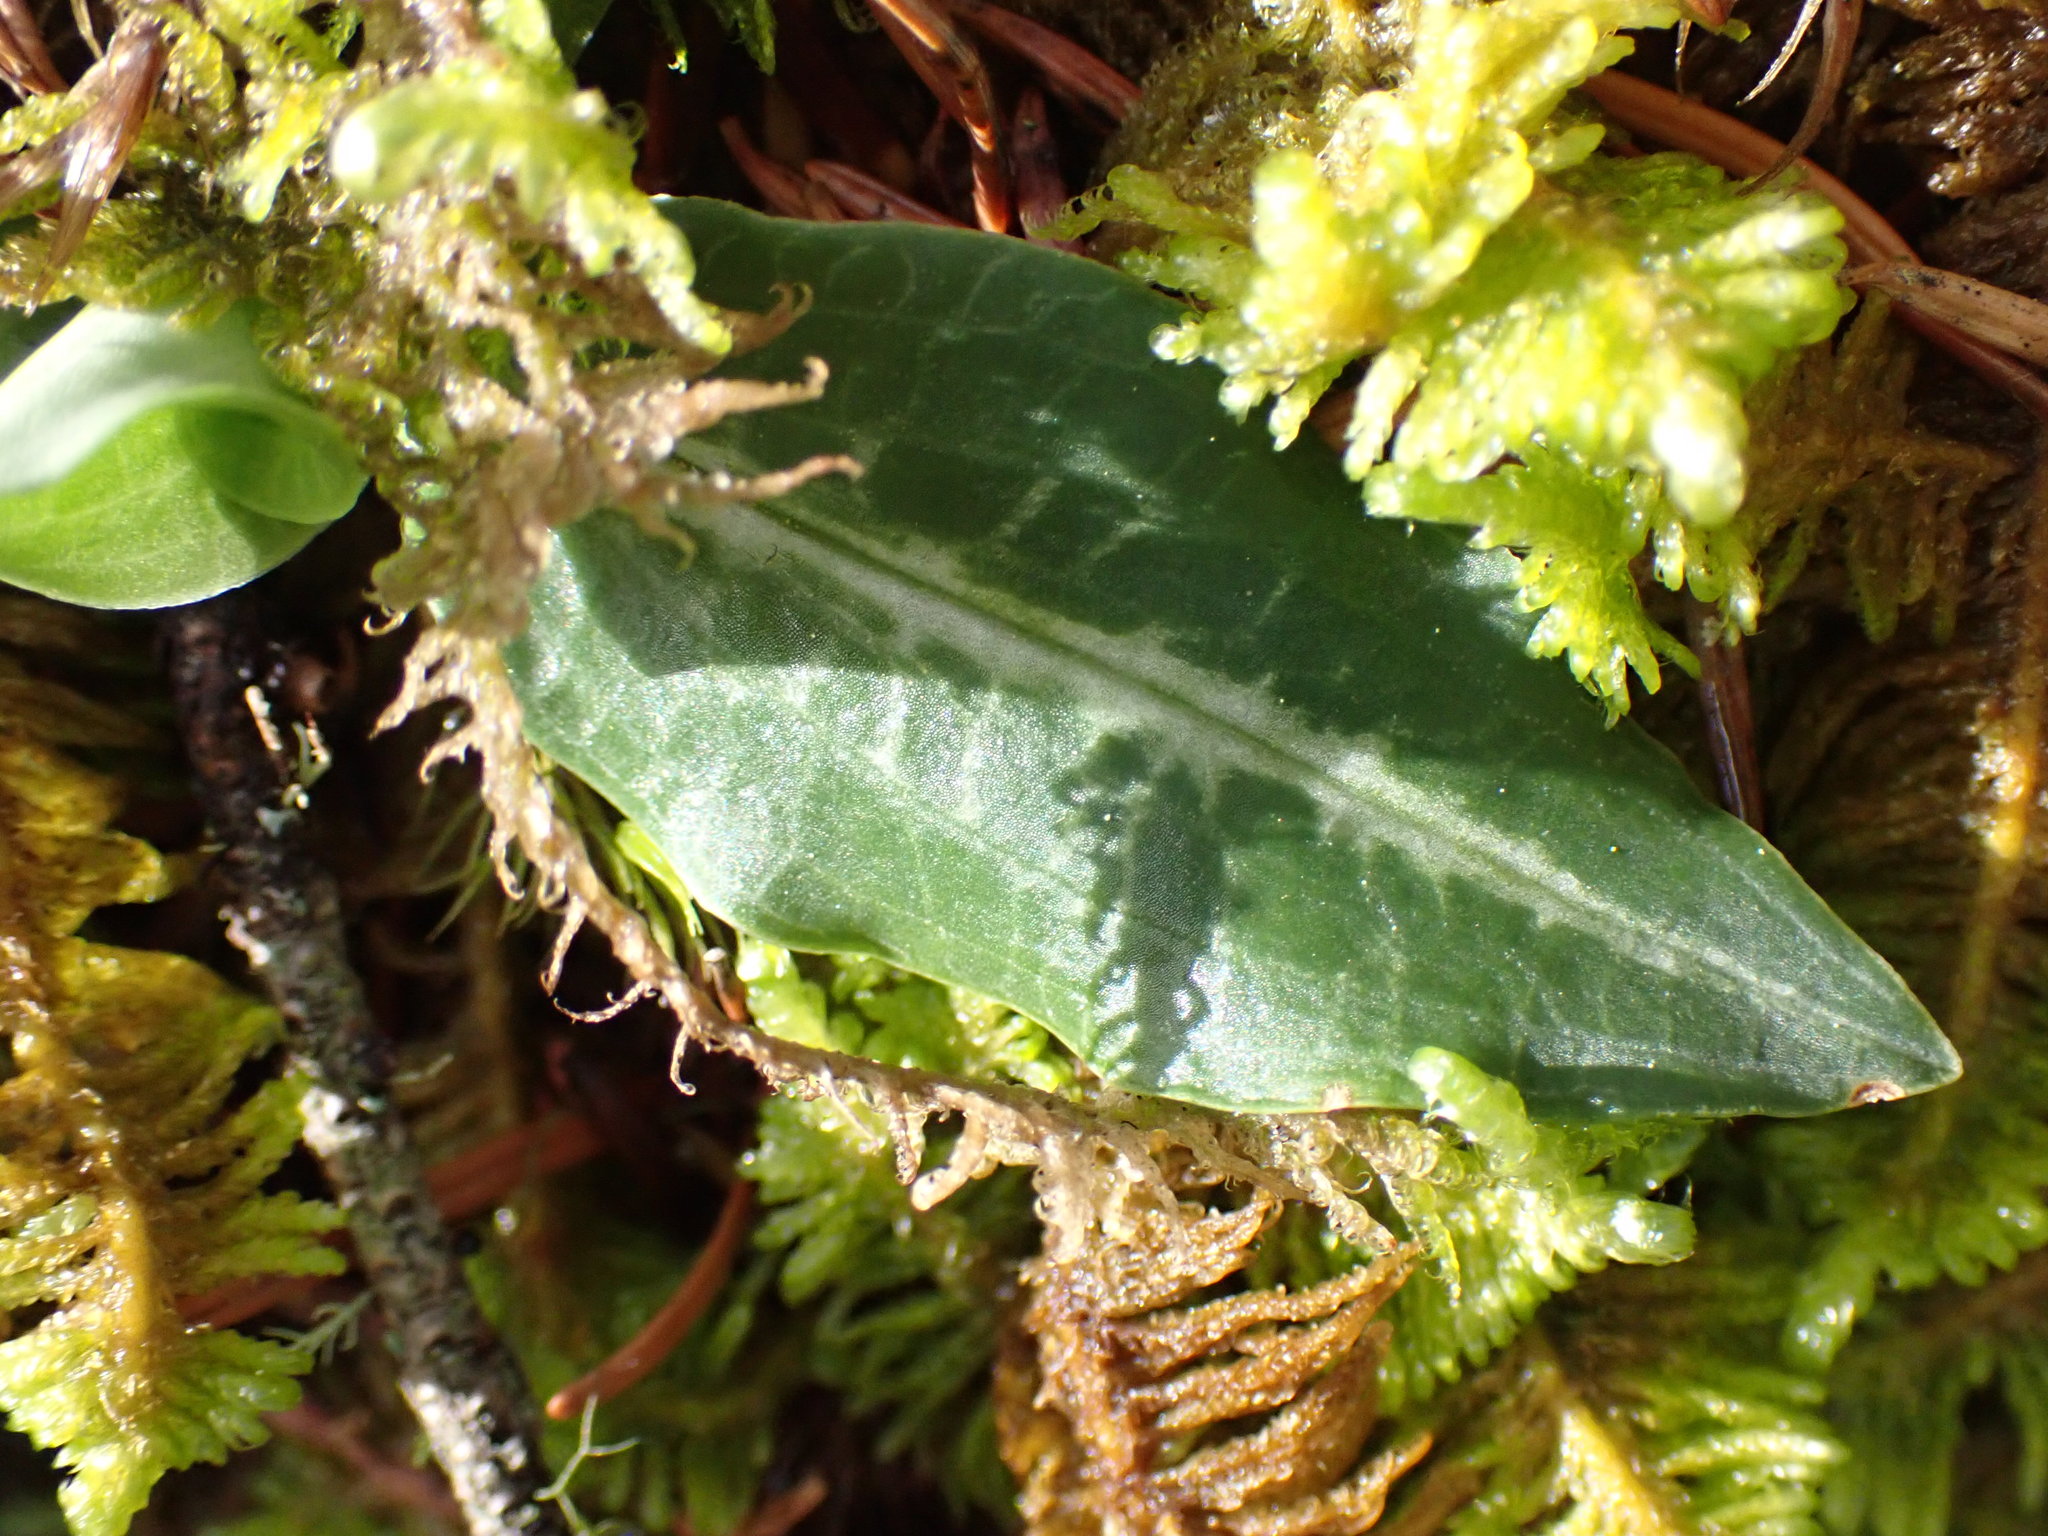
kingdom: Plantae
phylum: Tracheophyta
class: Liliopsida
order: Asparagales
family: Orchidaceae
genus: Goodyera
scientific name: Goodyera oblongifolia
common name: Giant rattlesnake-plantain
